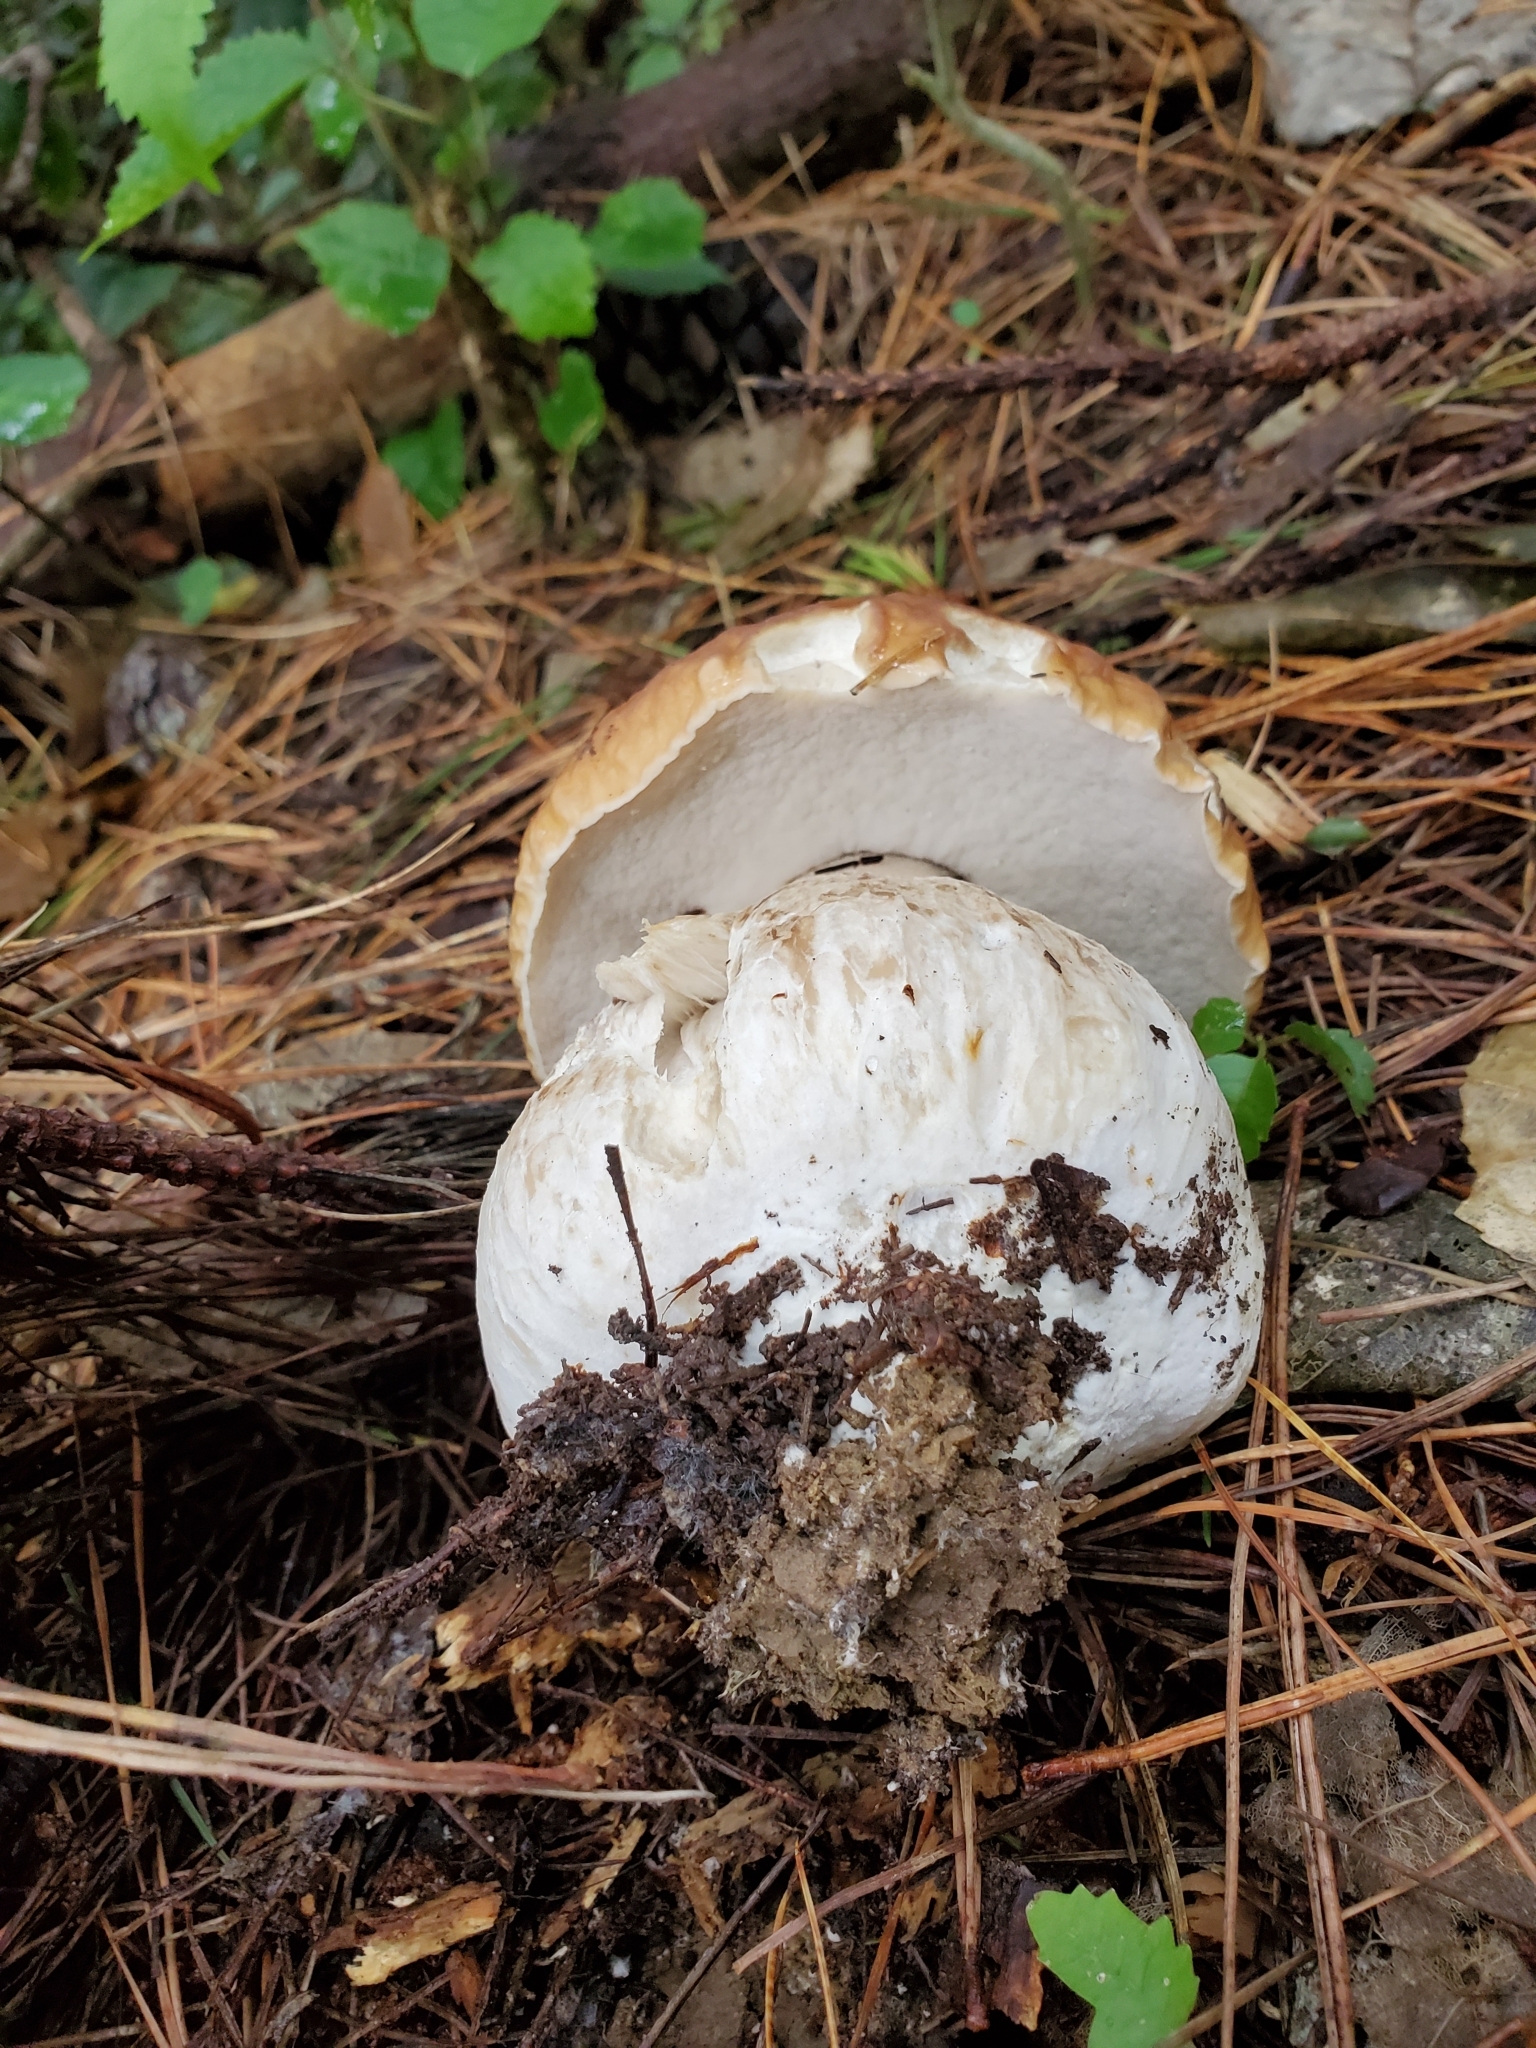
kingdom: Fungi
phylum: Basidiomycota
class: Agaricomycetes
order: Boletales
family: Boletaceae
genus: Boletus
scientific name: Boletus edulis
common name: Cep
